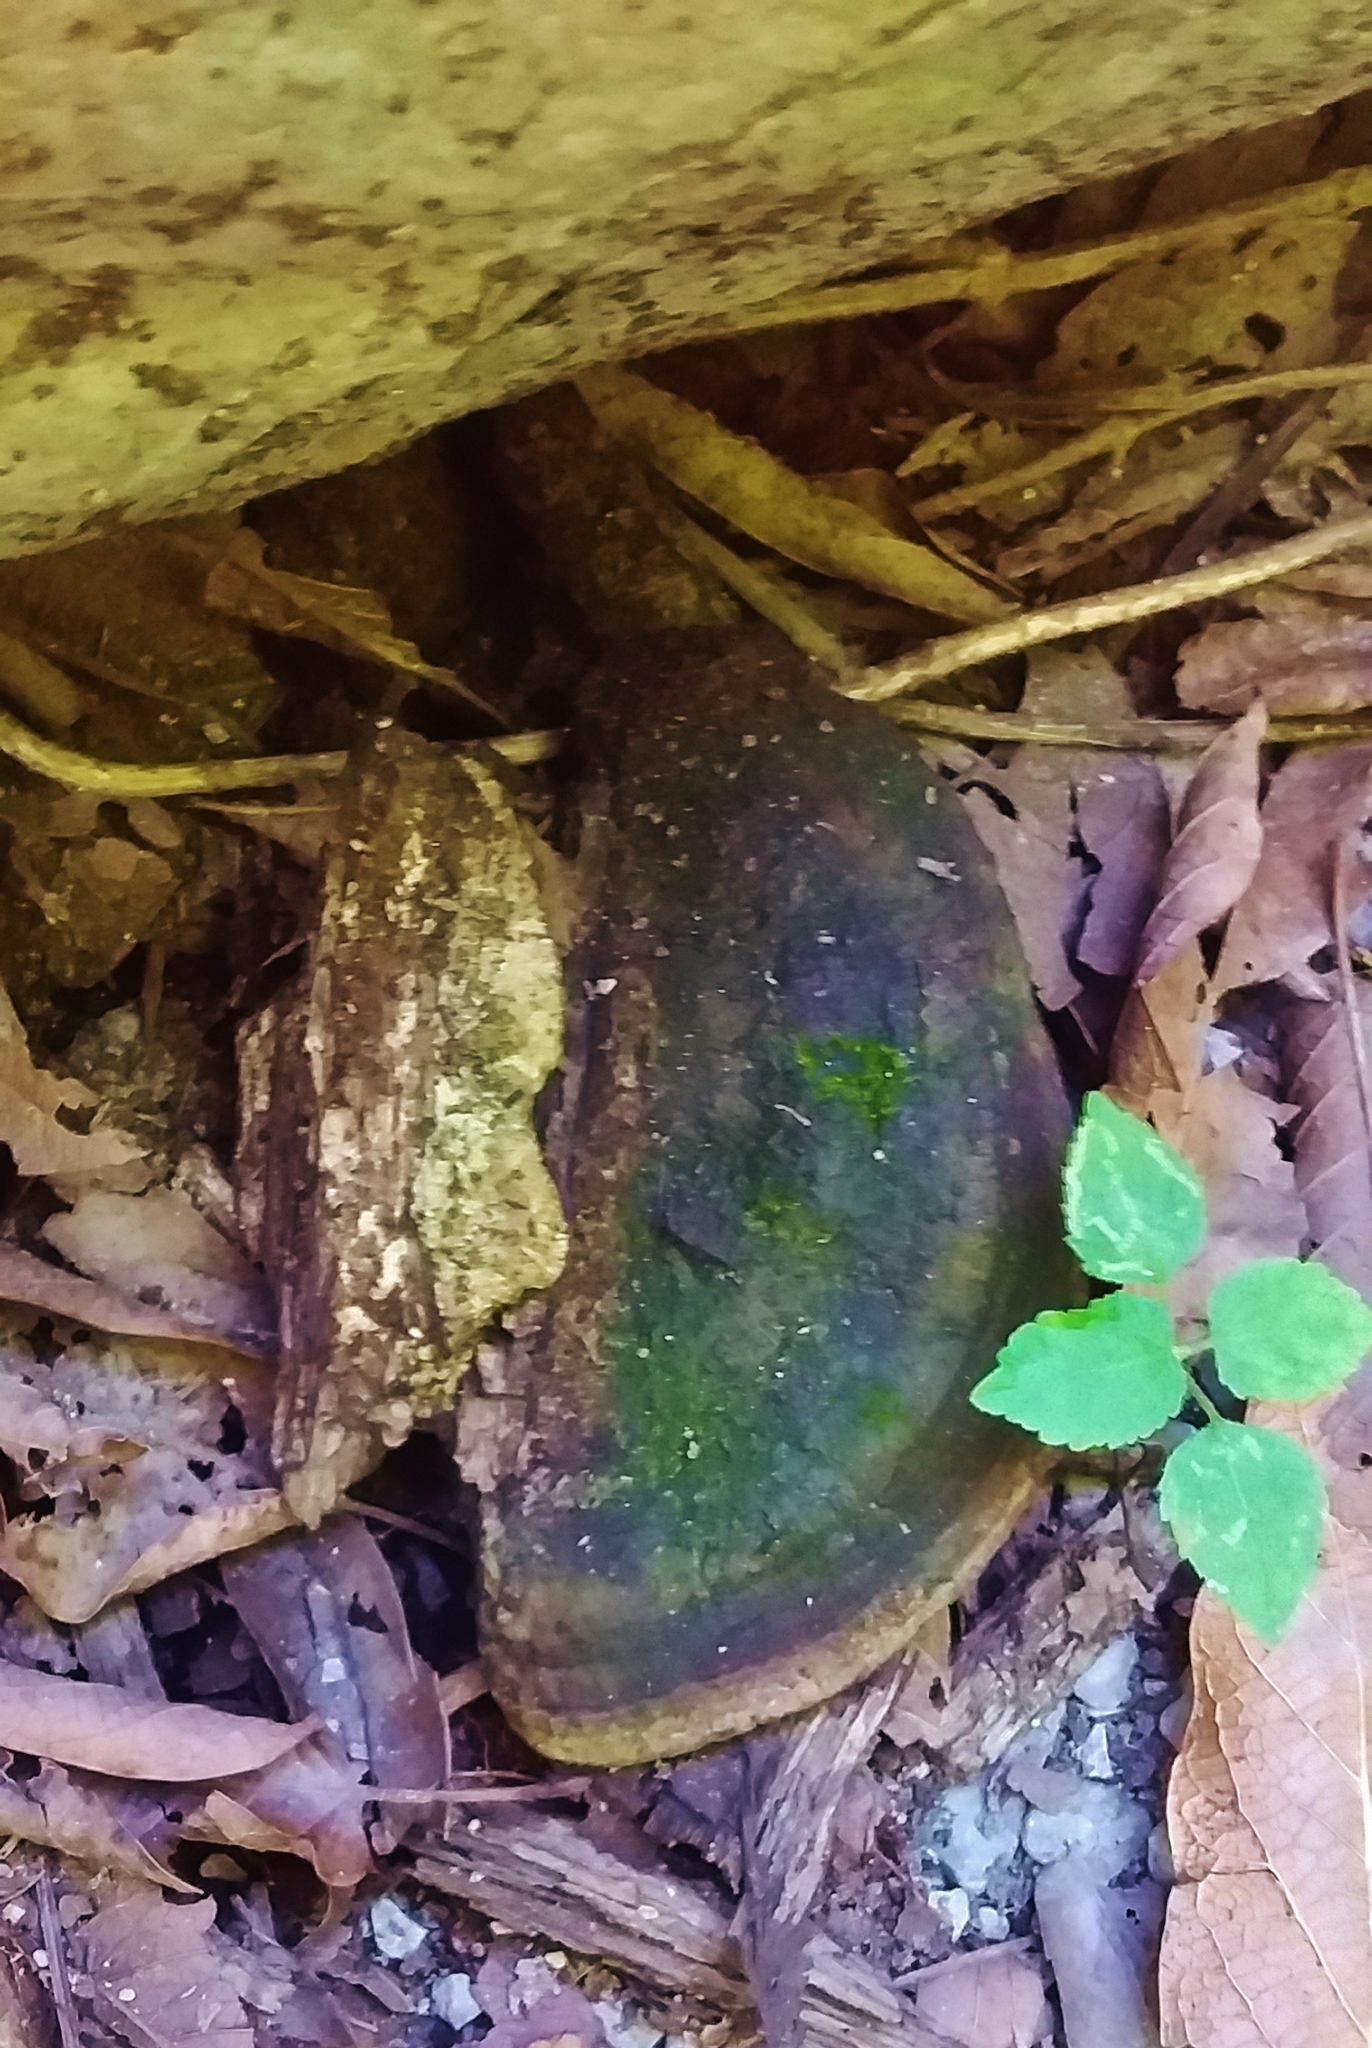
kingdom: Fungi
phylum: Basidiomycota
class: Agaricomycetes
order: Polyporales
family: Fomitopsidaceae
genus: Fomitopsis
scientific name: Fomitopsis
